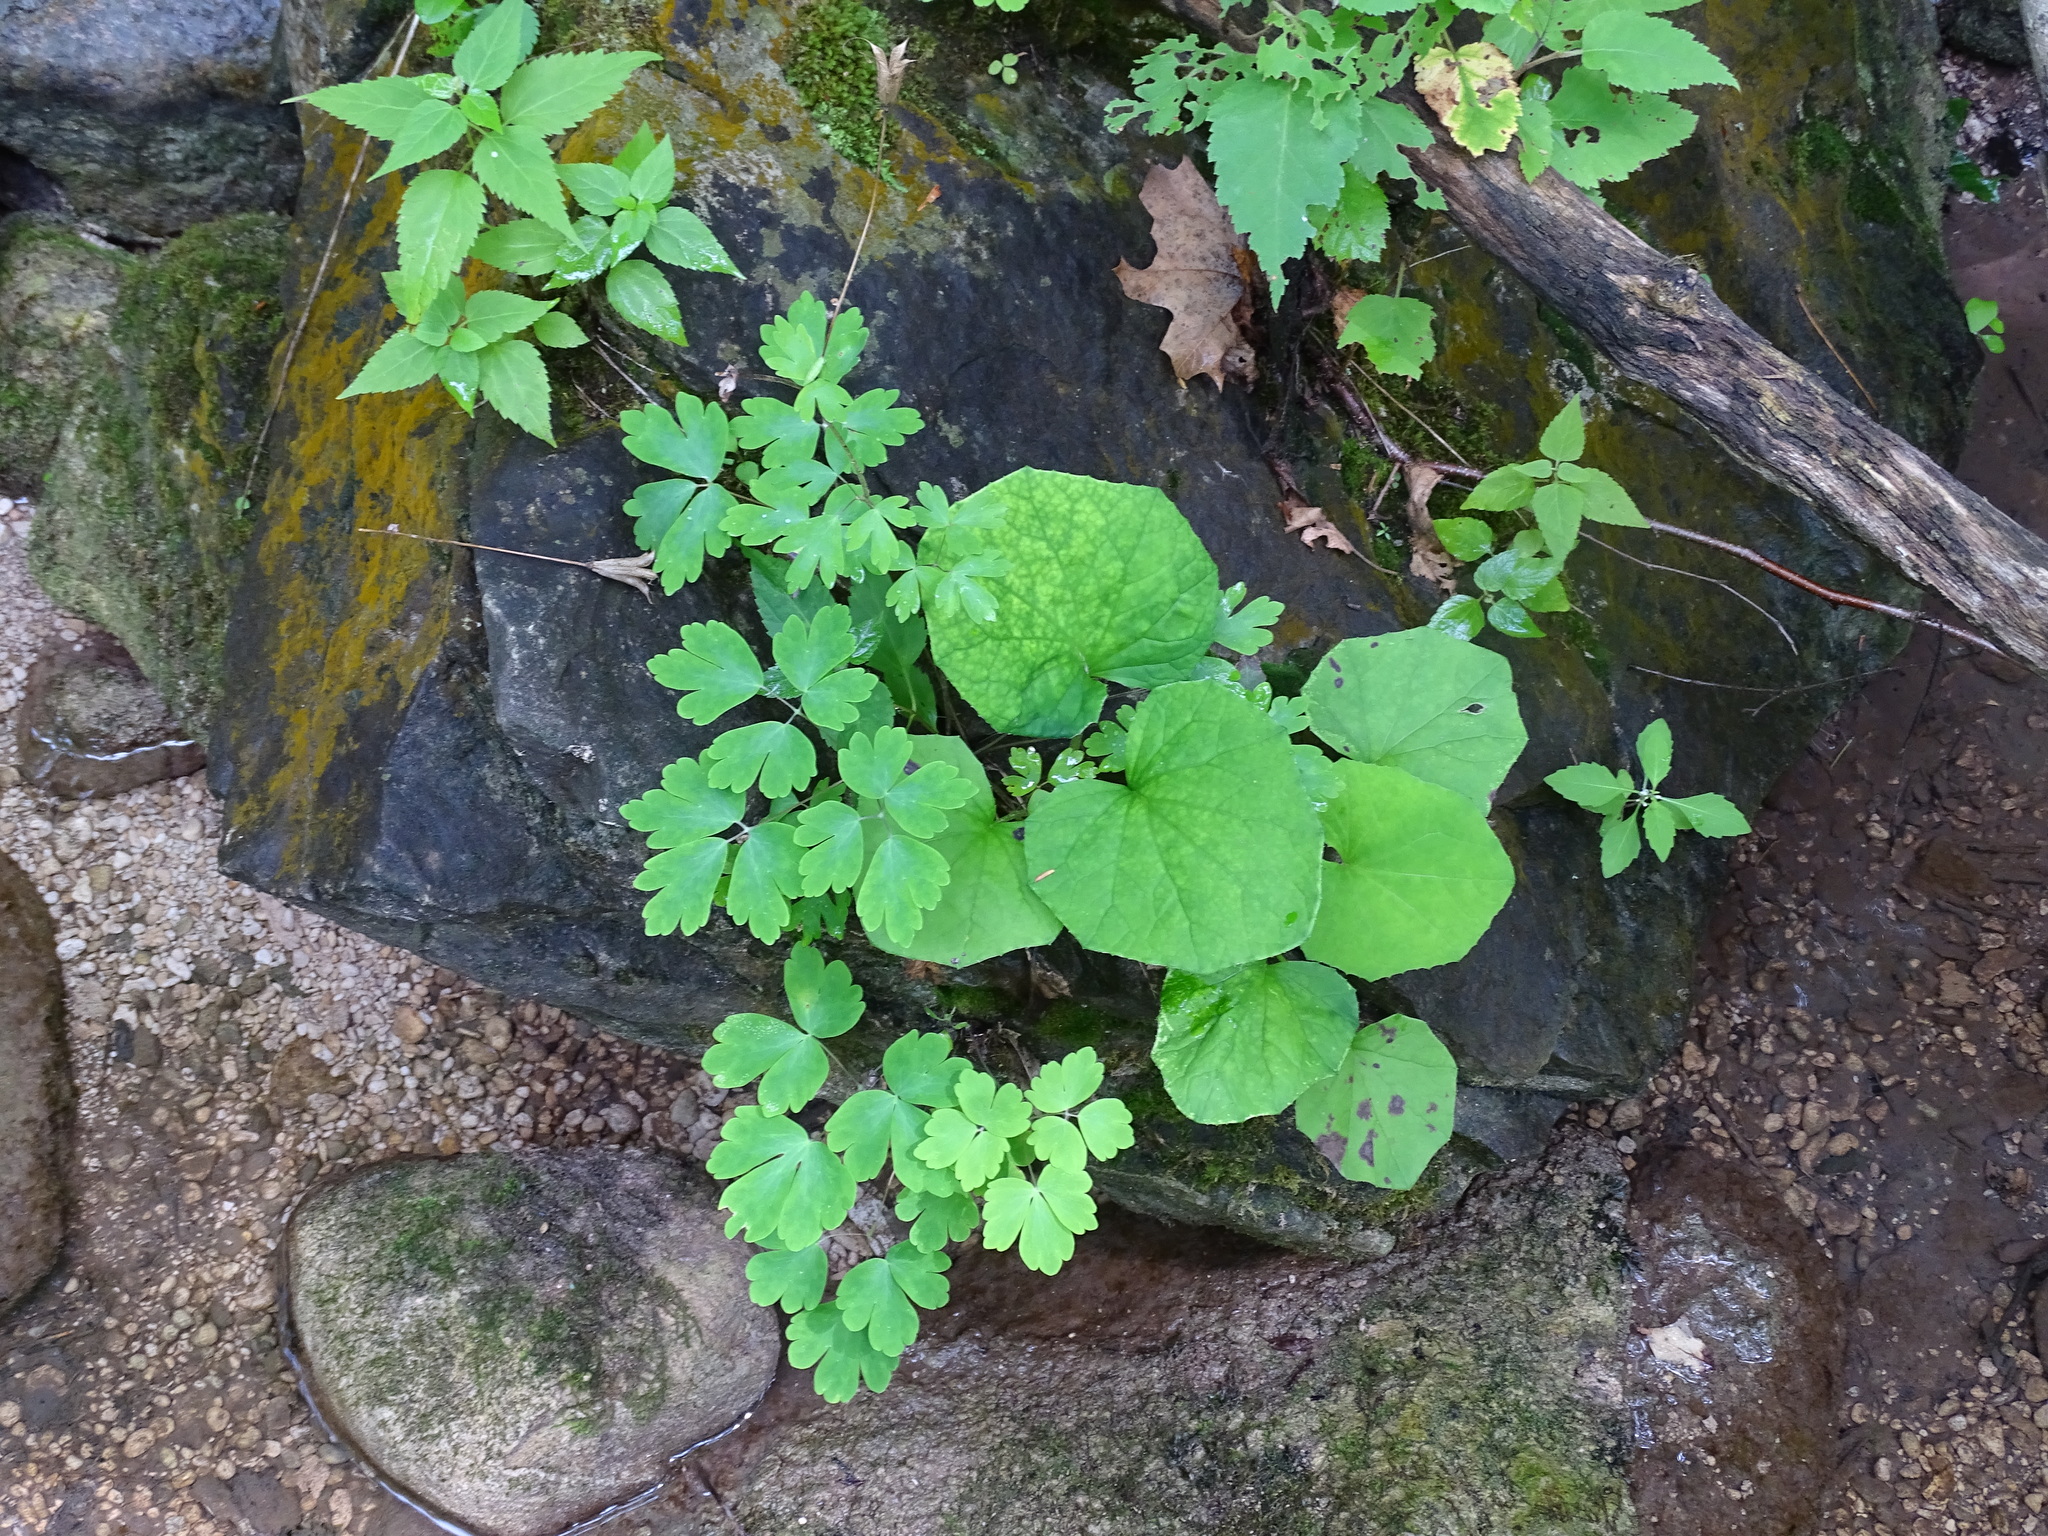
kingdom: Plantae
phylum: Tracheophyta
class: Magnoliopsida
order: Ranunculales
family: Ranunculaceae
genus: Aquilegia
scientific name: Aquilegia canadensis
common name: American columbine
